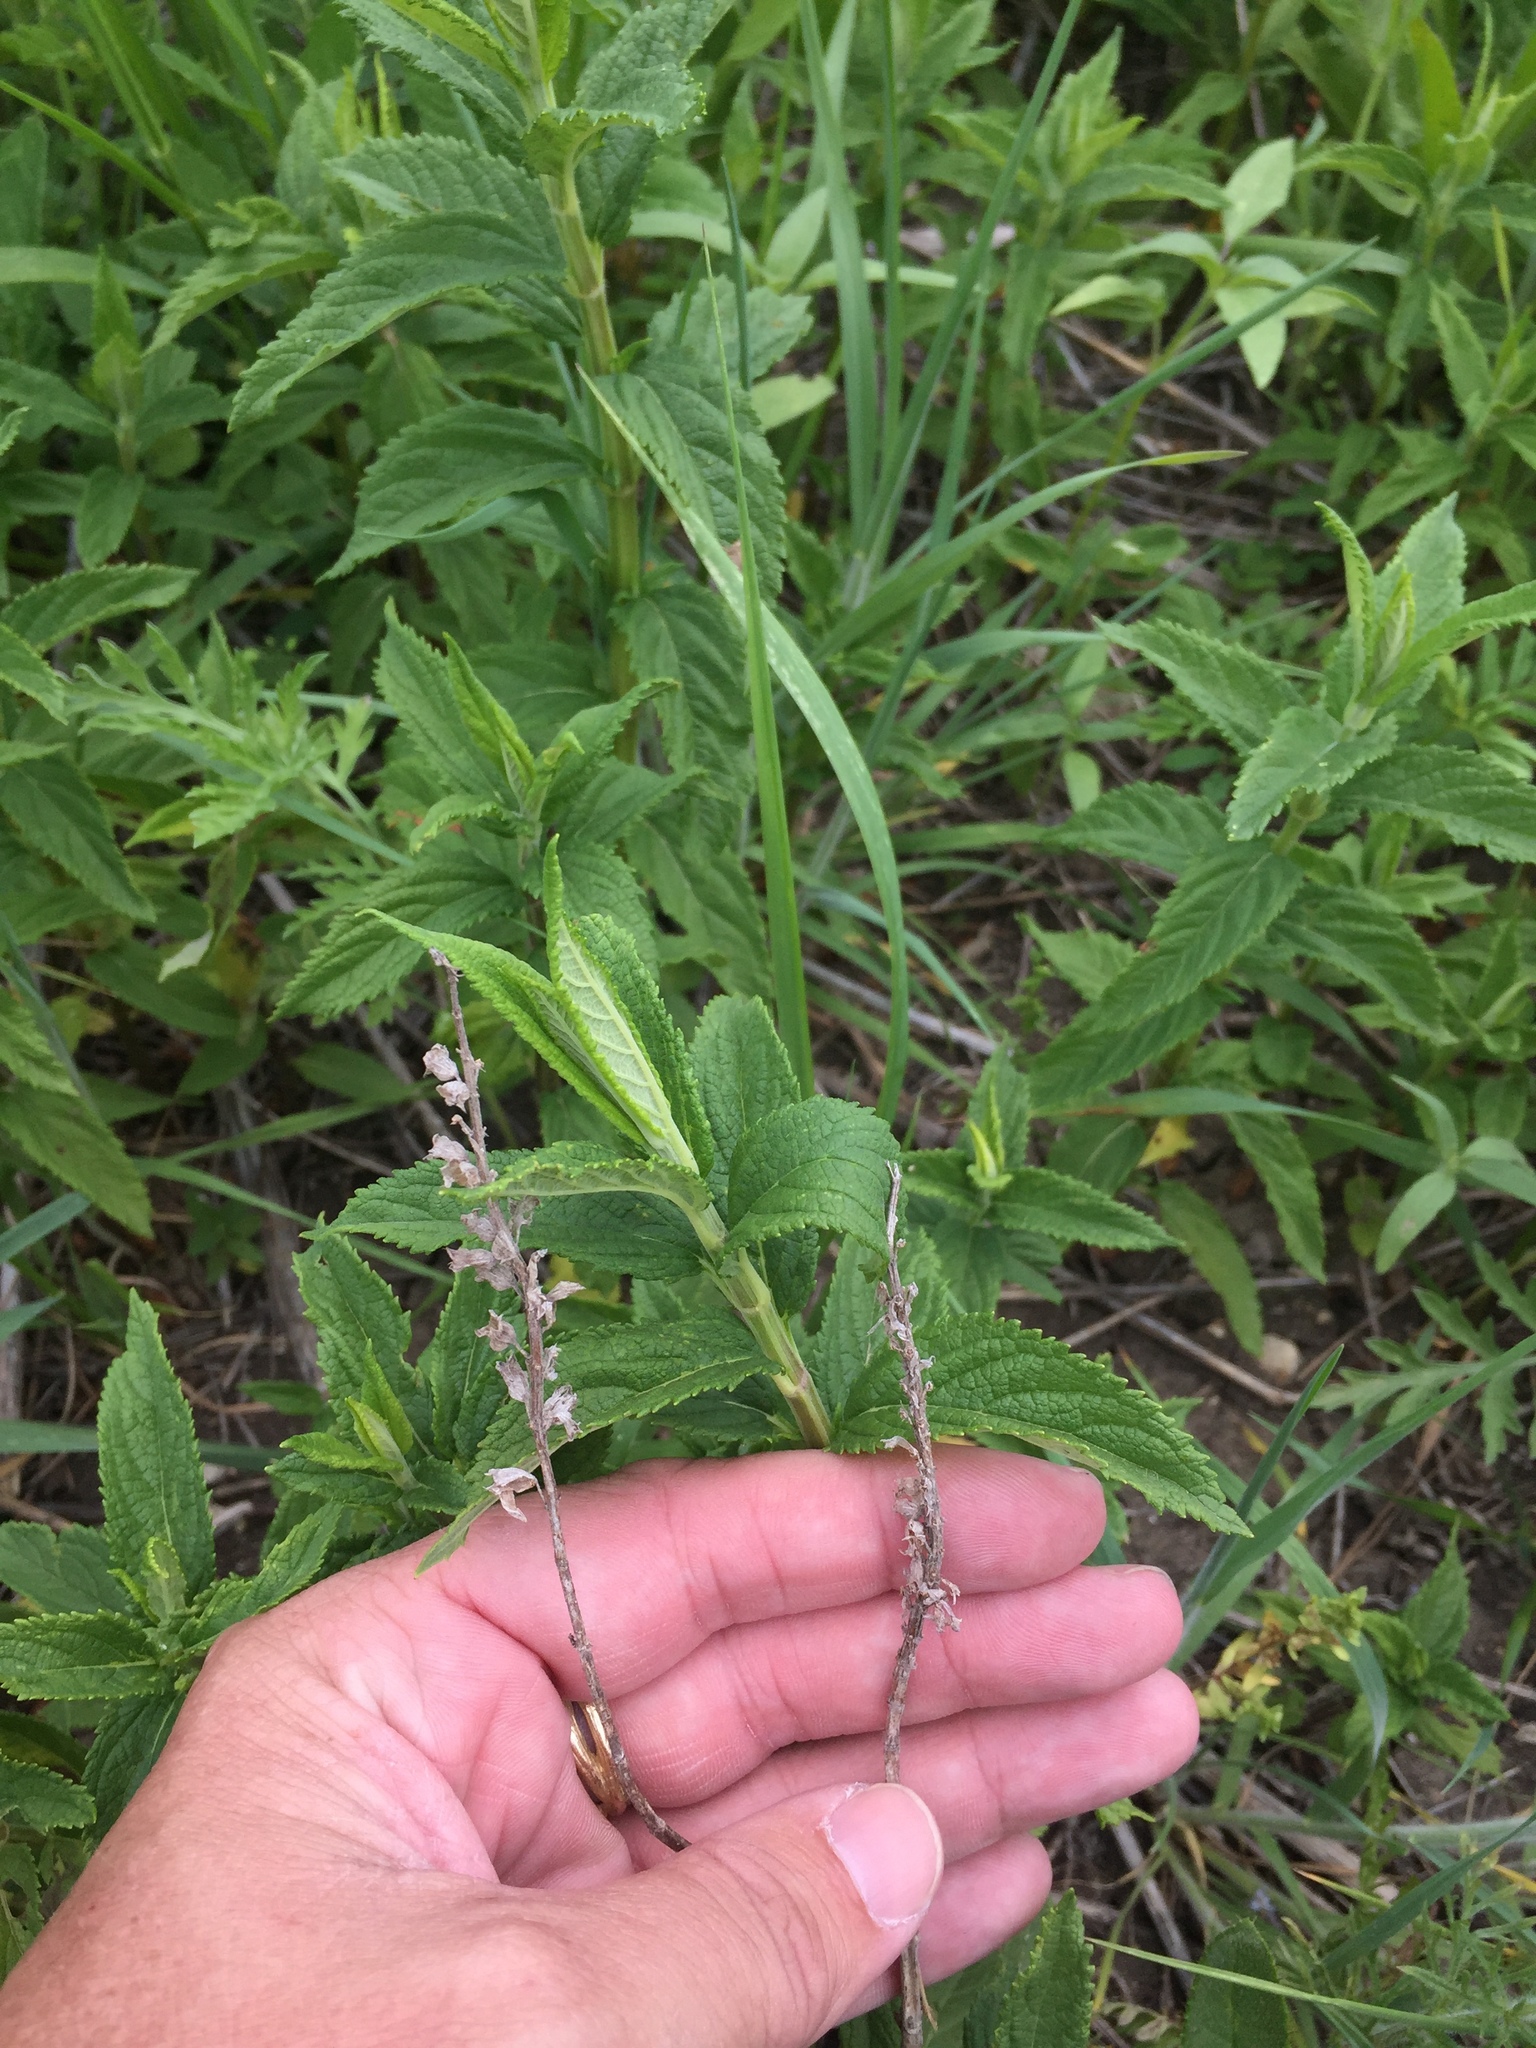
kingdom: Plantae
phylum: Tracheophyta
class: Magnoliopsida
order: Lamiales
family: Lamiaceae
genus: Teucrium
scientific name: Teucrium canadense
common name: American germander
